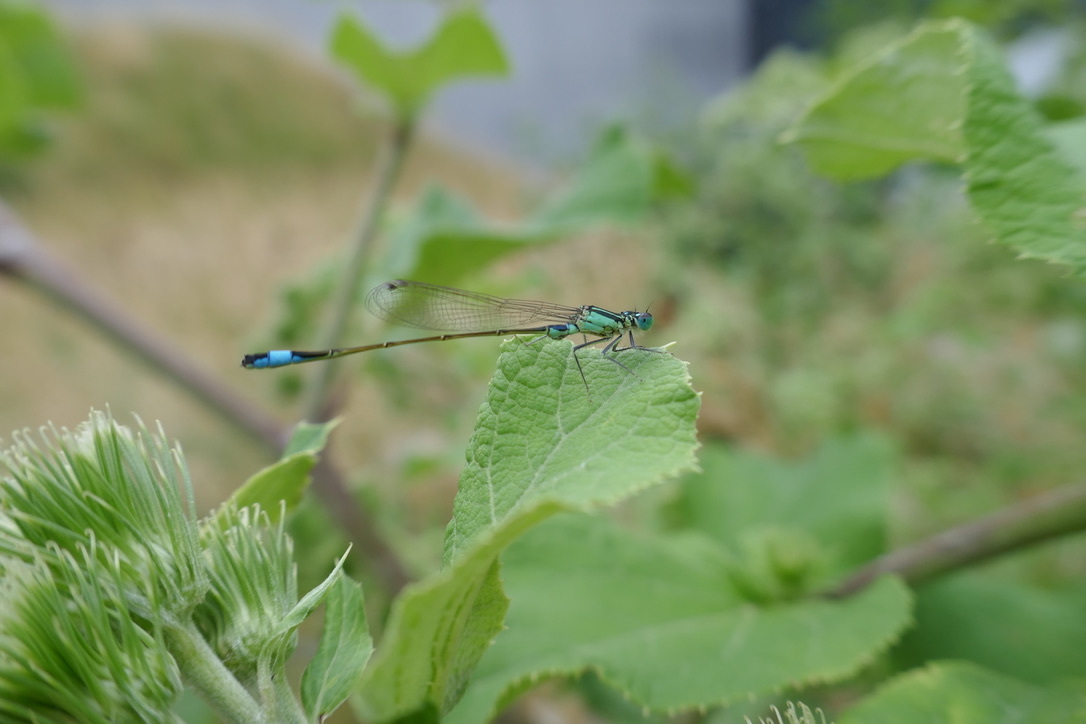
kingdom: Animalia
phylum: Arthropoda
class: Insecta
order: Odonata
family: Coenagrionidae
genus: Ischnura
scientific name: Ischnura elegans
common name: Blue-tailed damselfly
